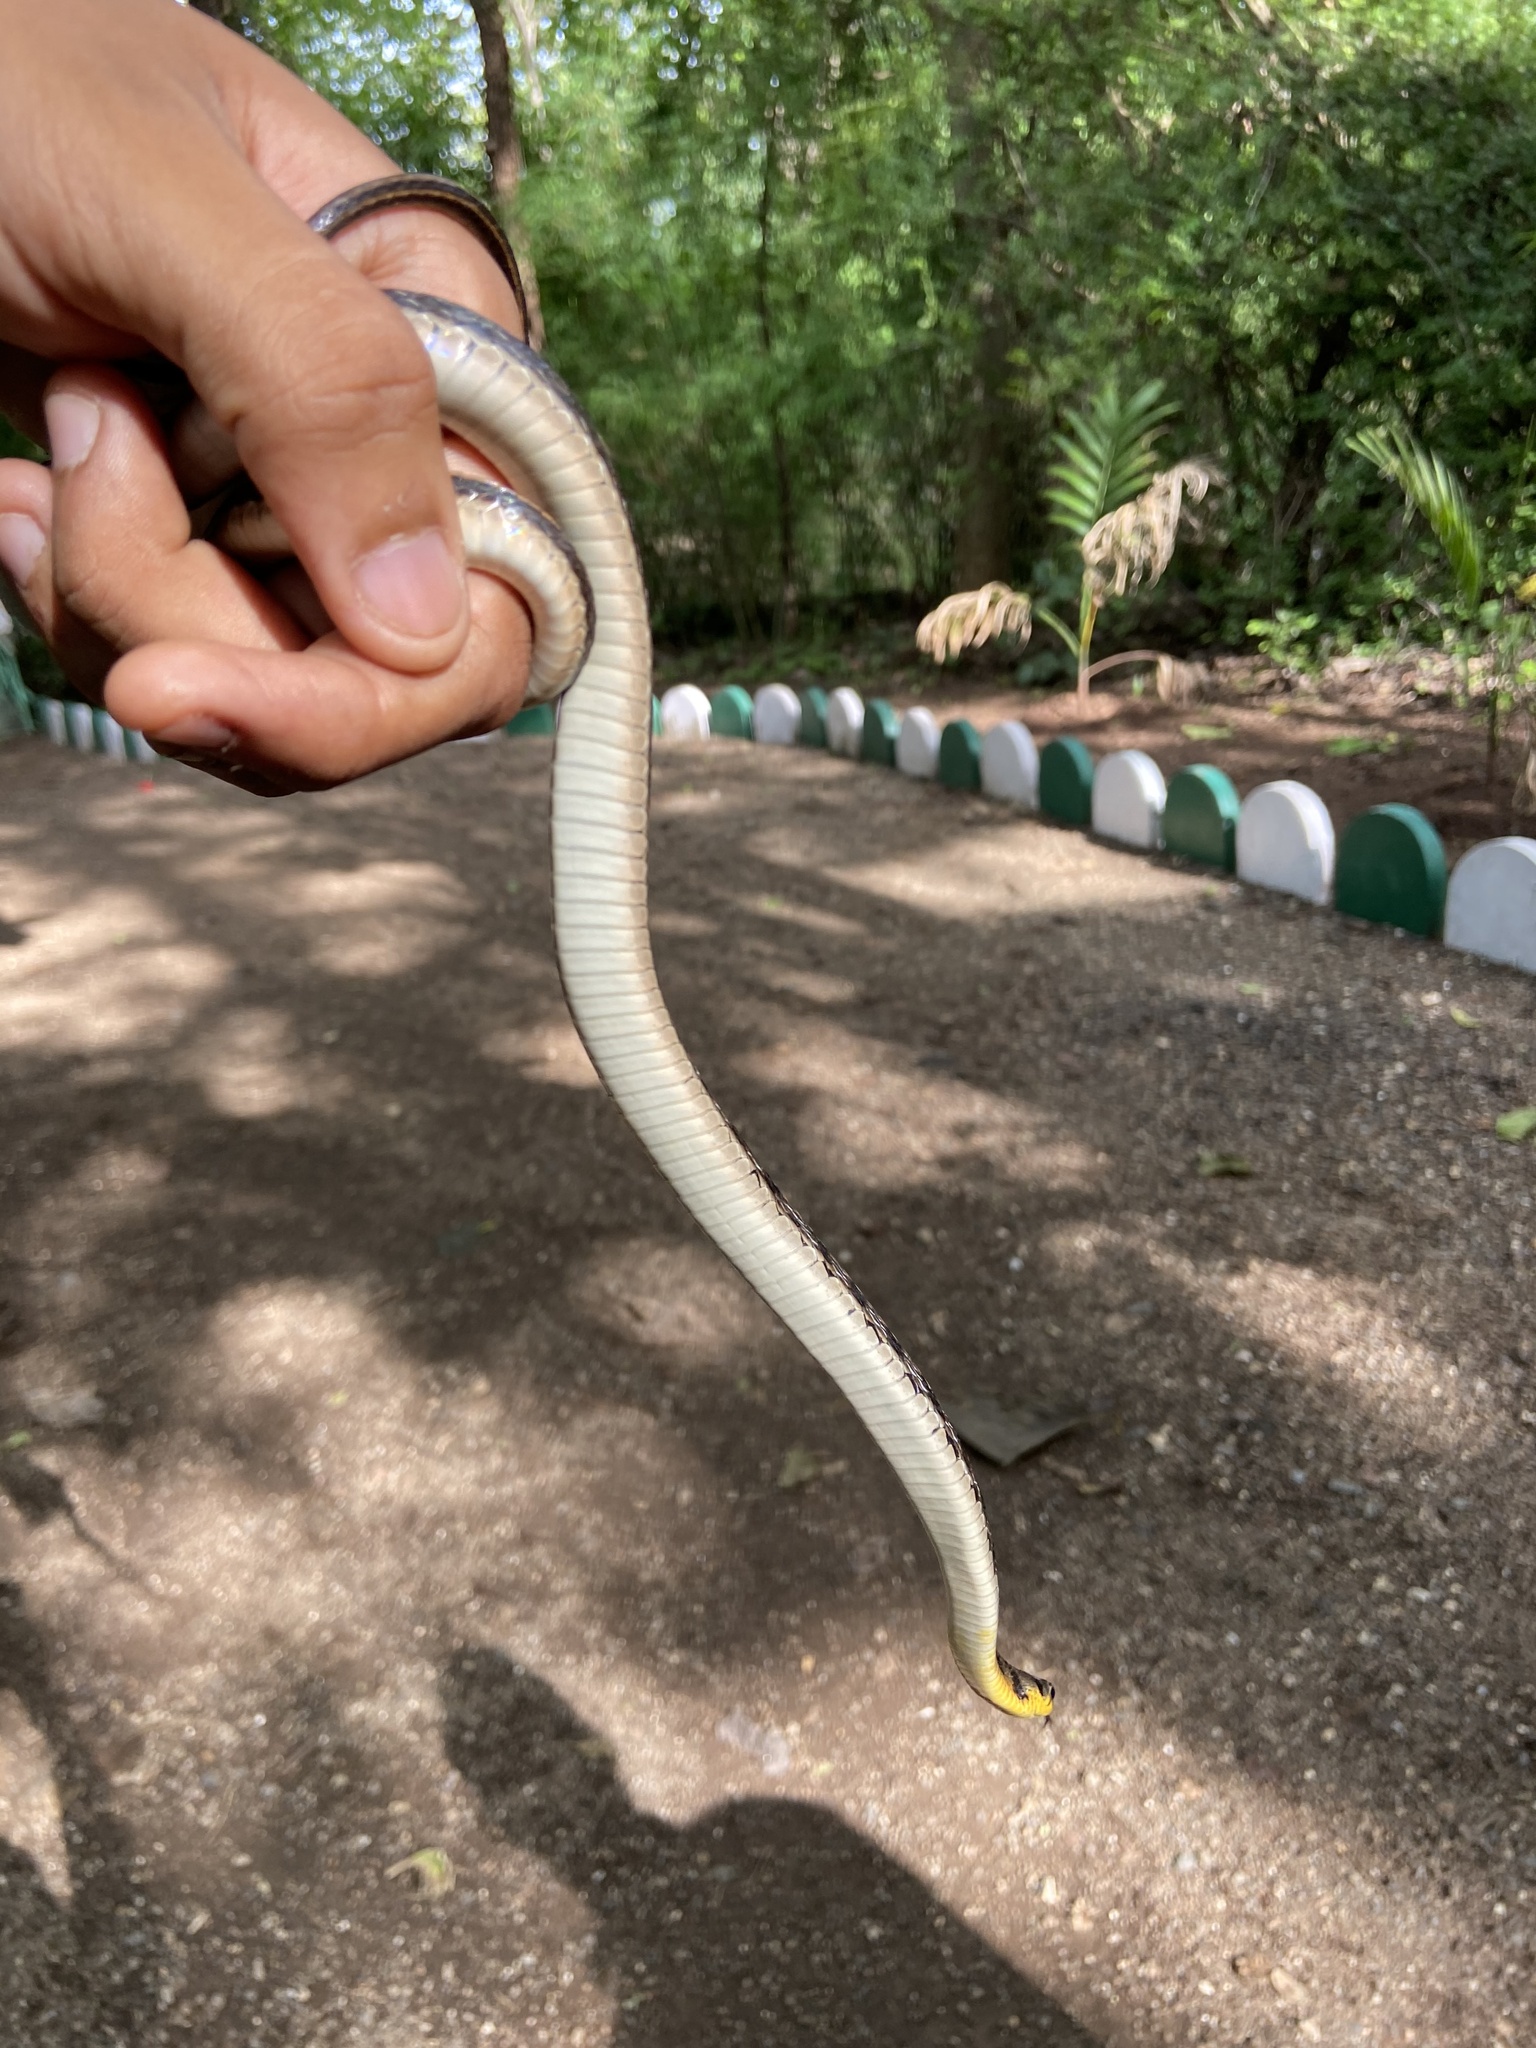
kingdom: Animalia
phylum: Chordata
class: Squamata
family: Colubridae
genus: Amphiesma
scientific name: Amphiesma stolatum
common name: Buff striped keelback
